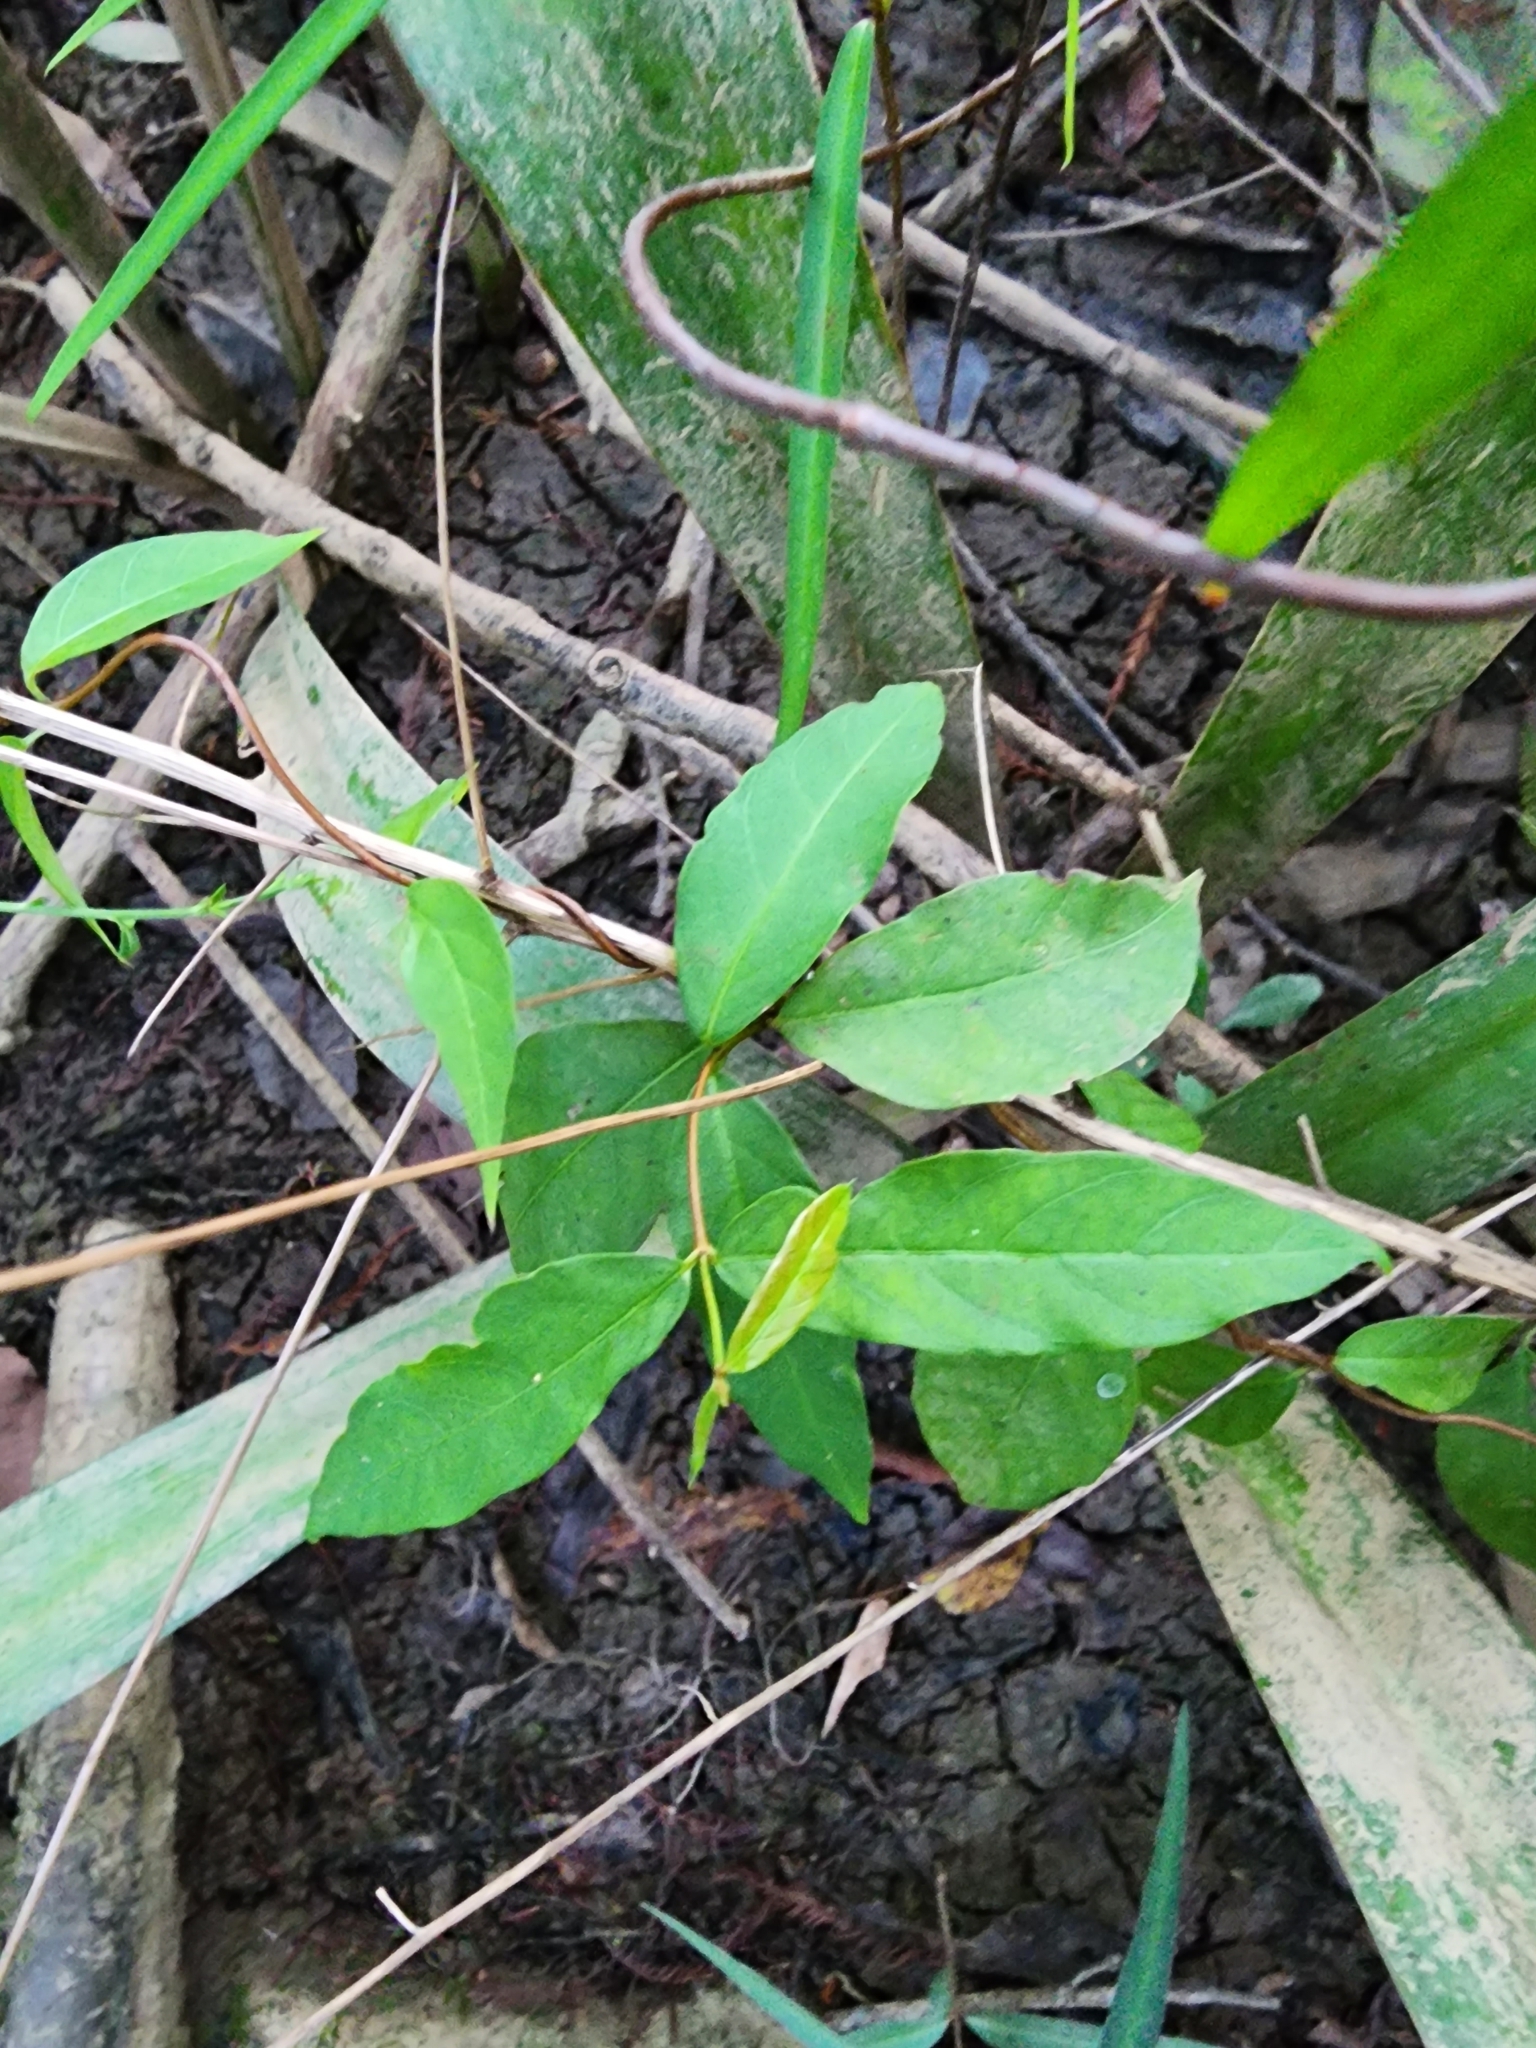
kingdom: Plantae
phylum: Tracheophyta
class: Magnoliopsida
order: Gentianales
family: Apocynaceae
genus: Thyrsanthella
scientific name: Thyrsanthella difformis
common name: Climbing dogbane
